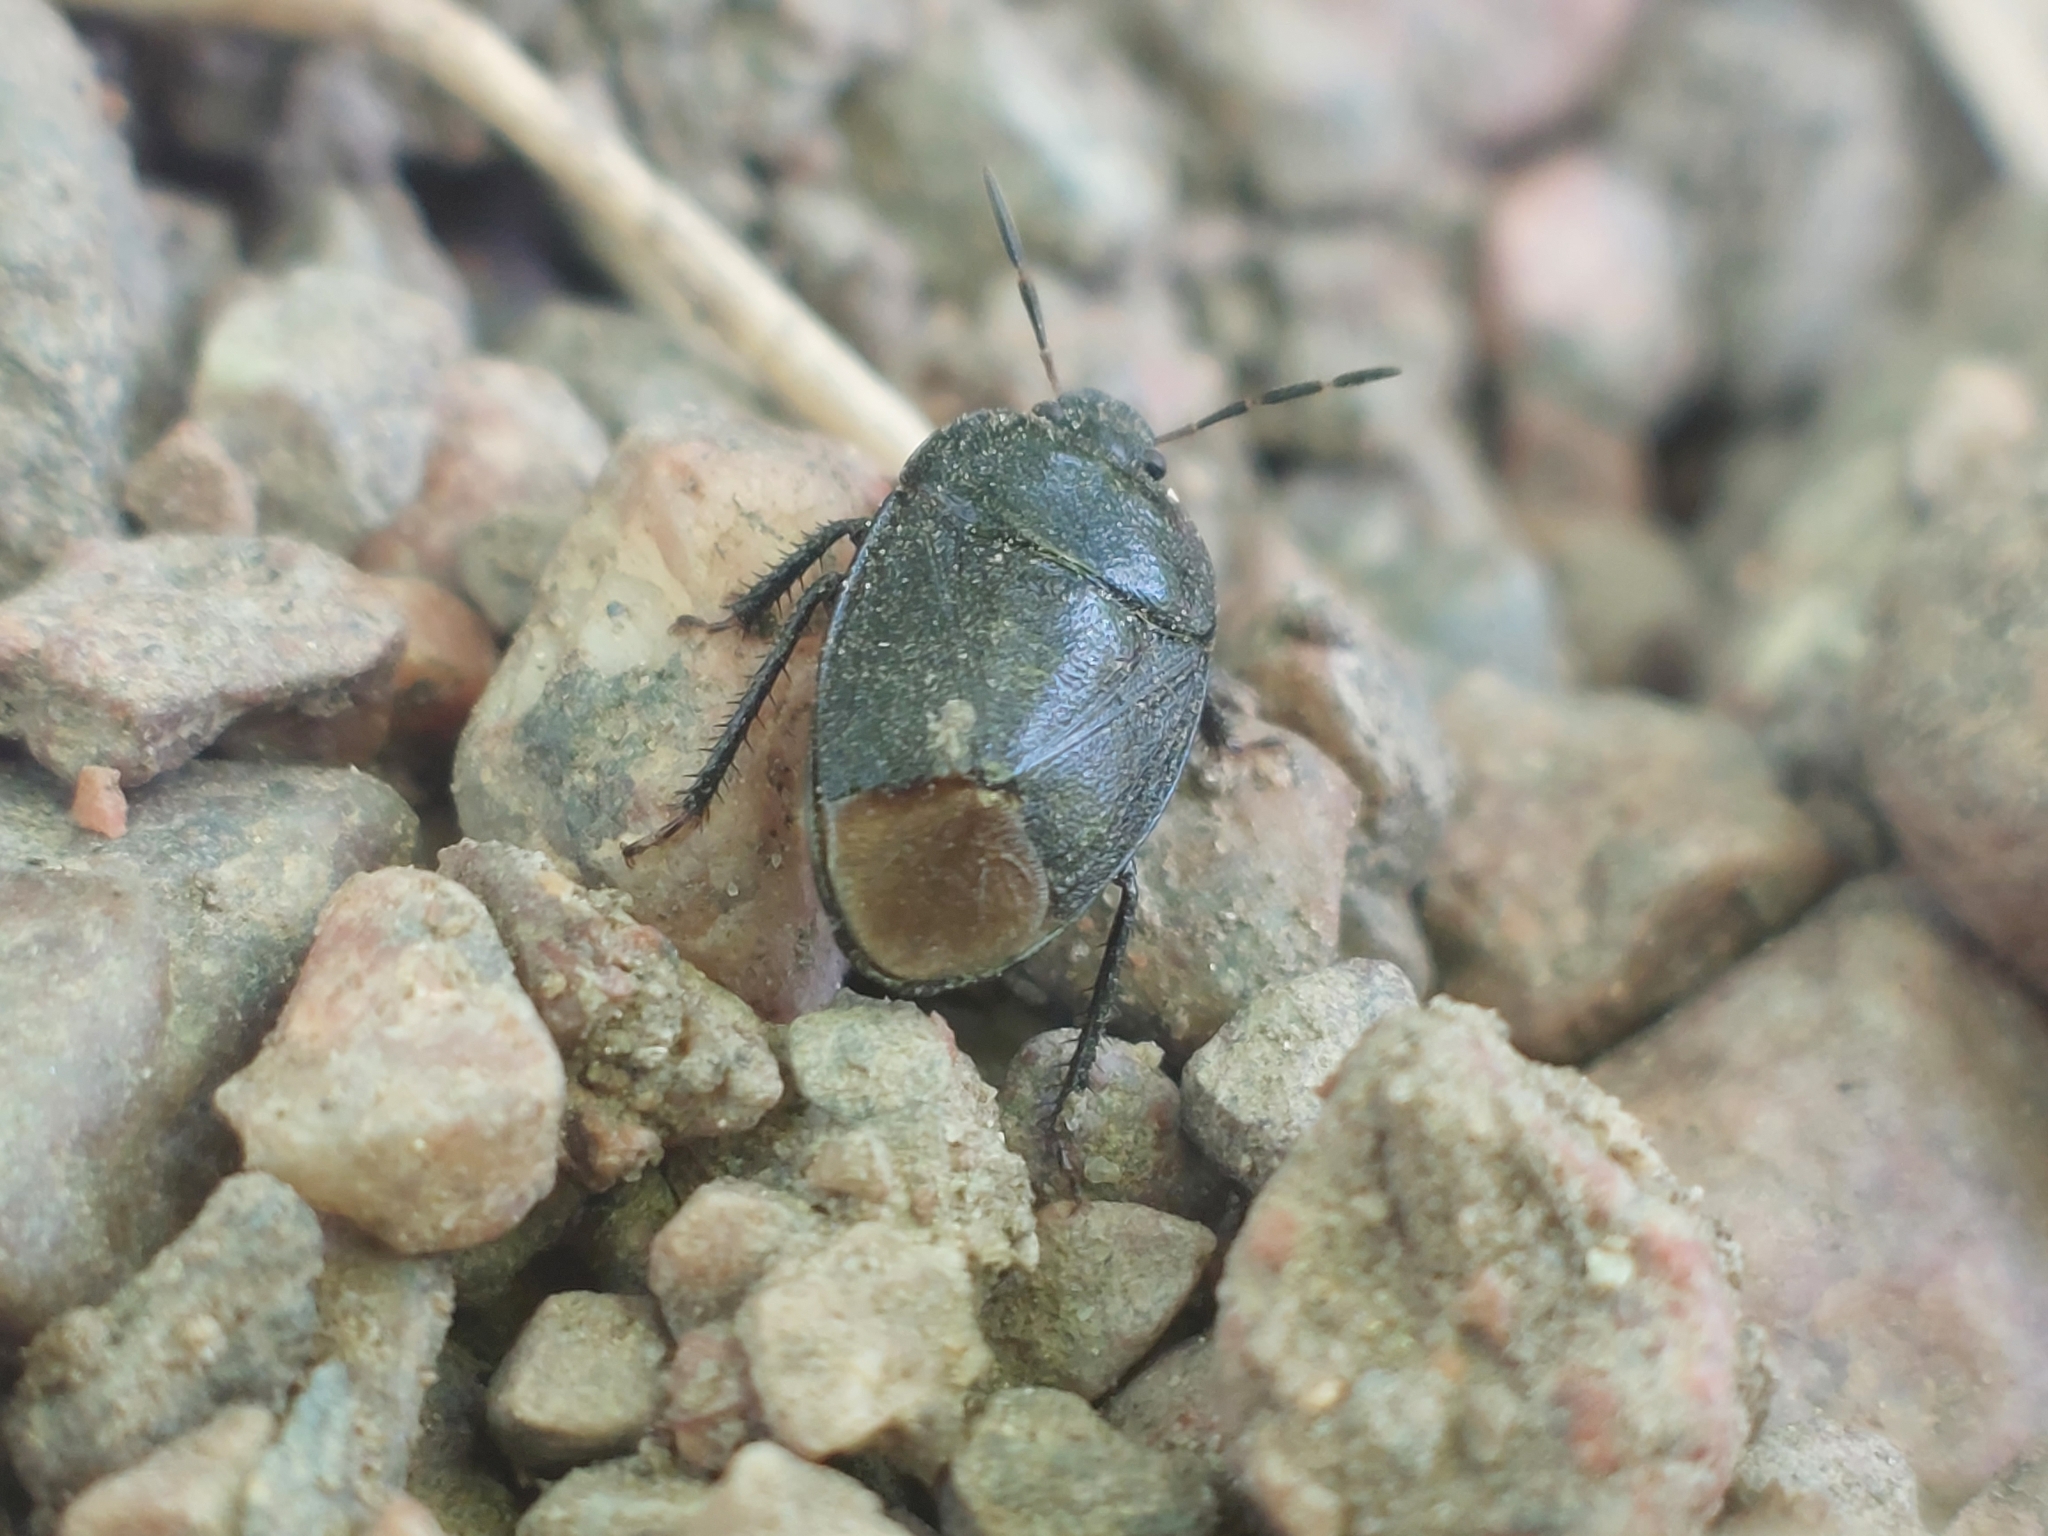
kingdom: Animalia
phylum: Arthropoda
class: Insecta
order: Hemiptera
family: Cydnidae
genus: Sehirus
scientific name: Sehirus luctuosus
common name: Forget-me-not shieldbug
